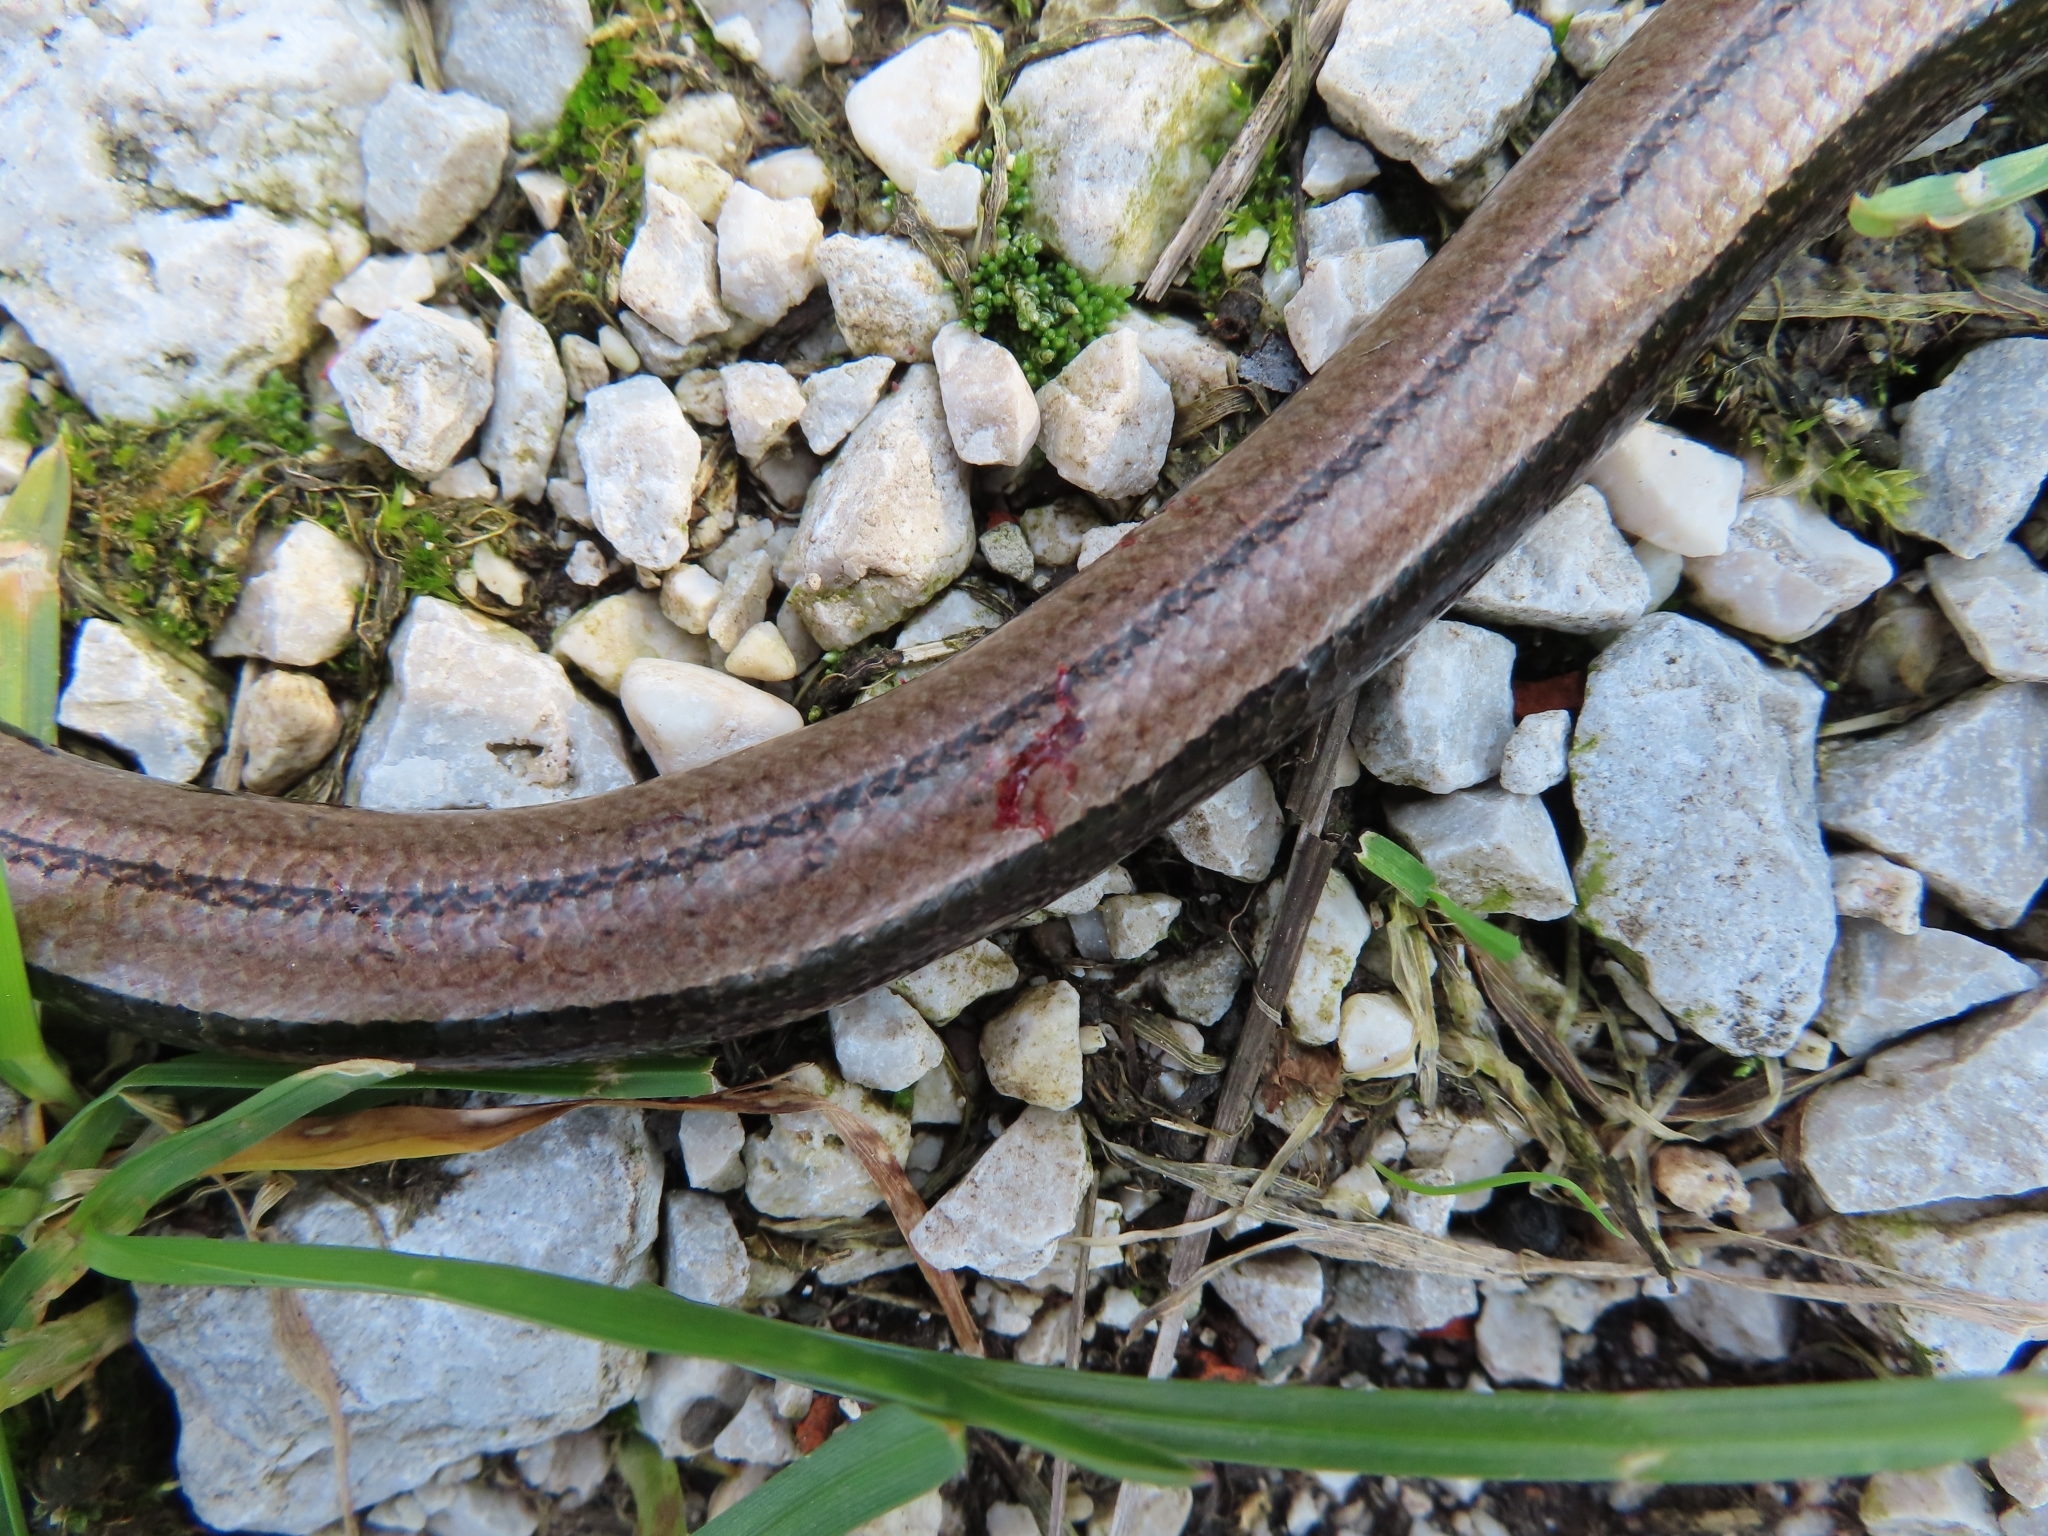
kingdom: Animalia
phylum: Chordata
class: Squamata
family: Anguidae
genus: Anguis
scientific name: Anguis fragilis
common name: Slow worm
